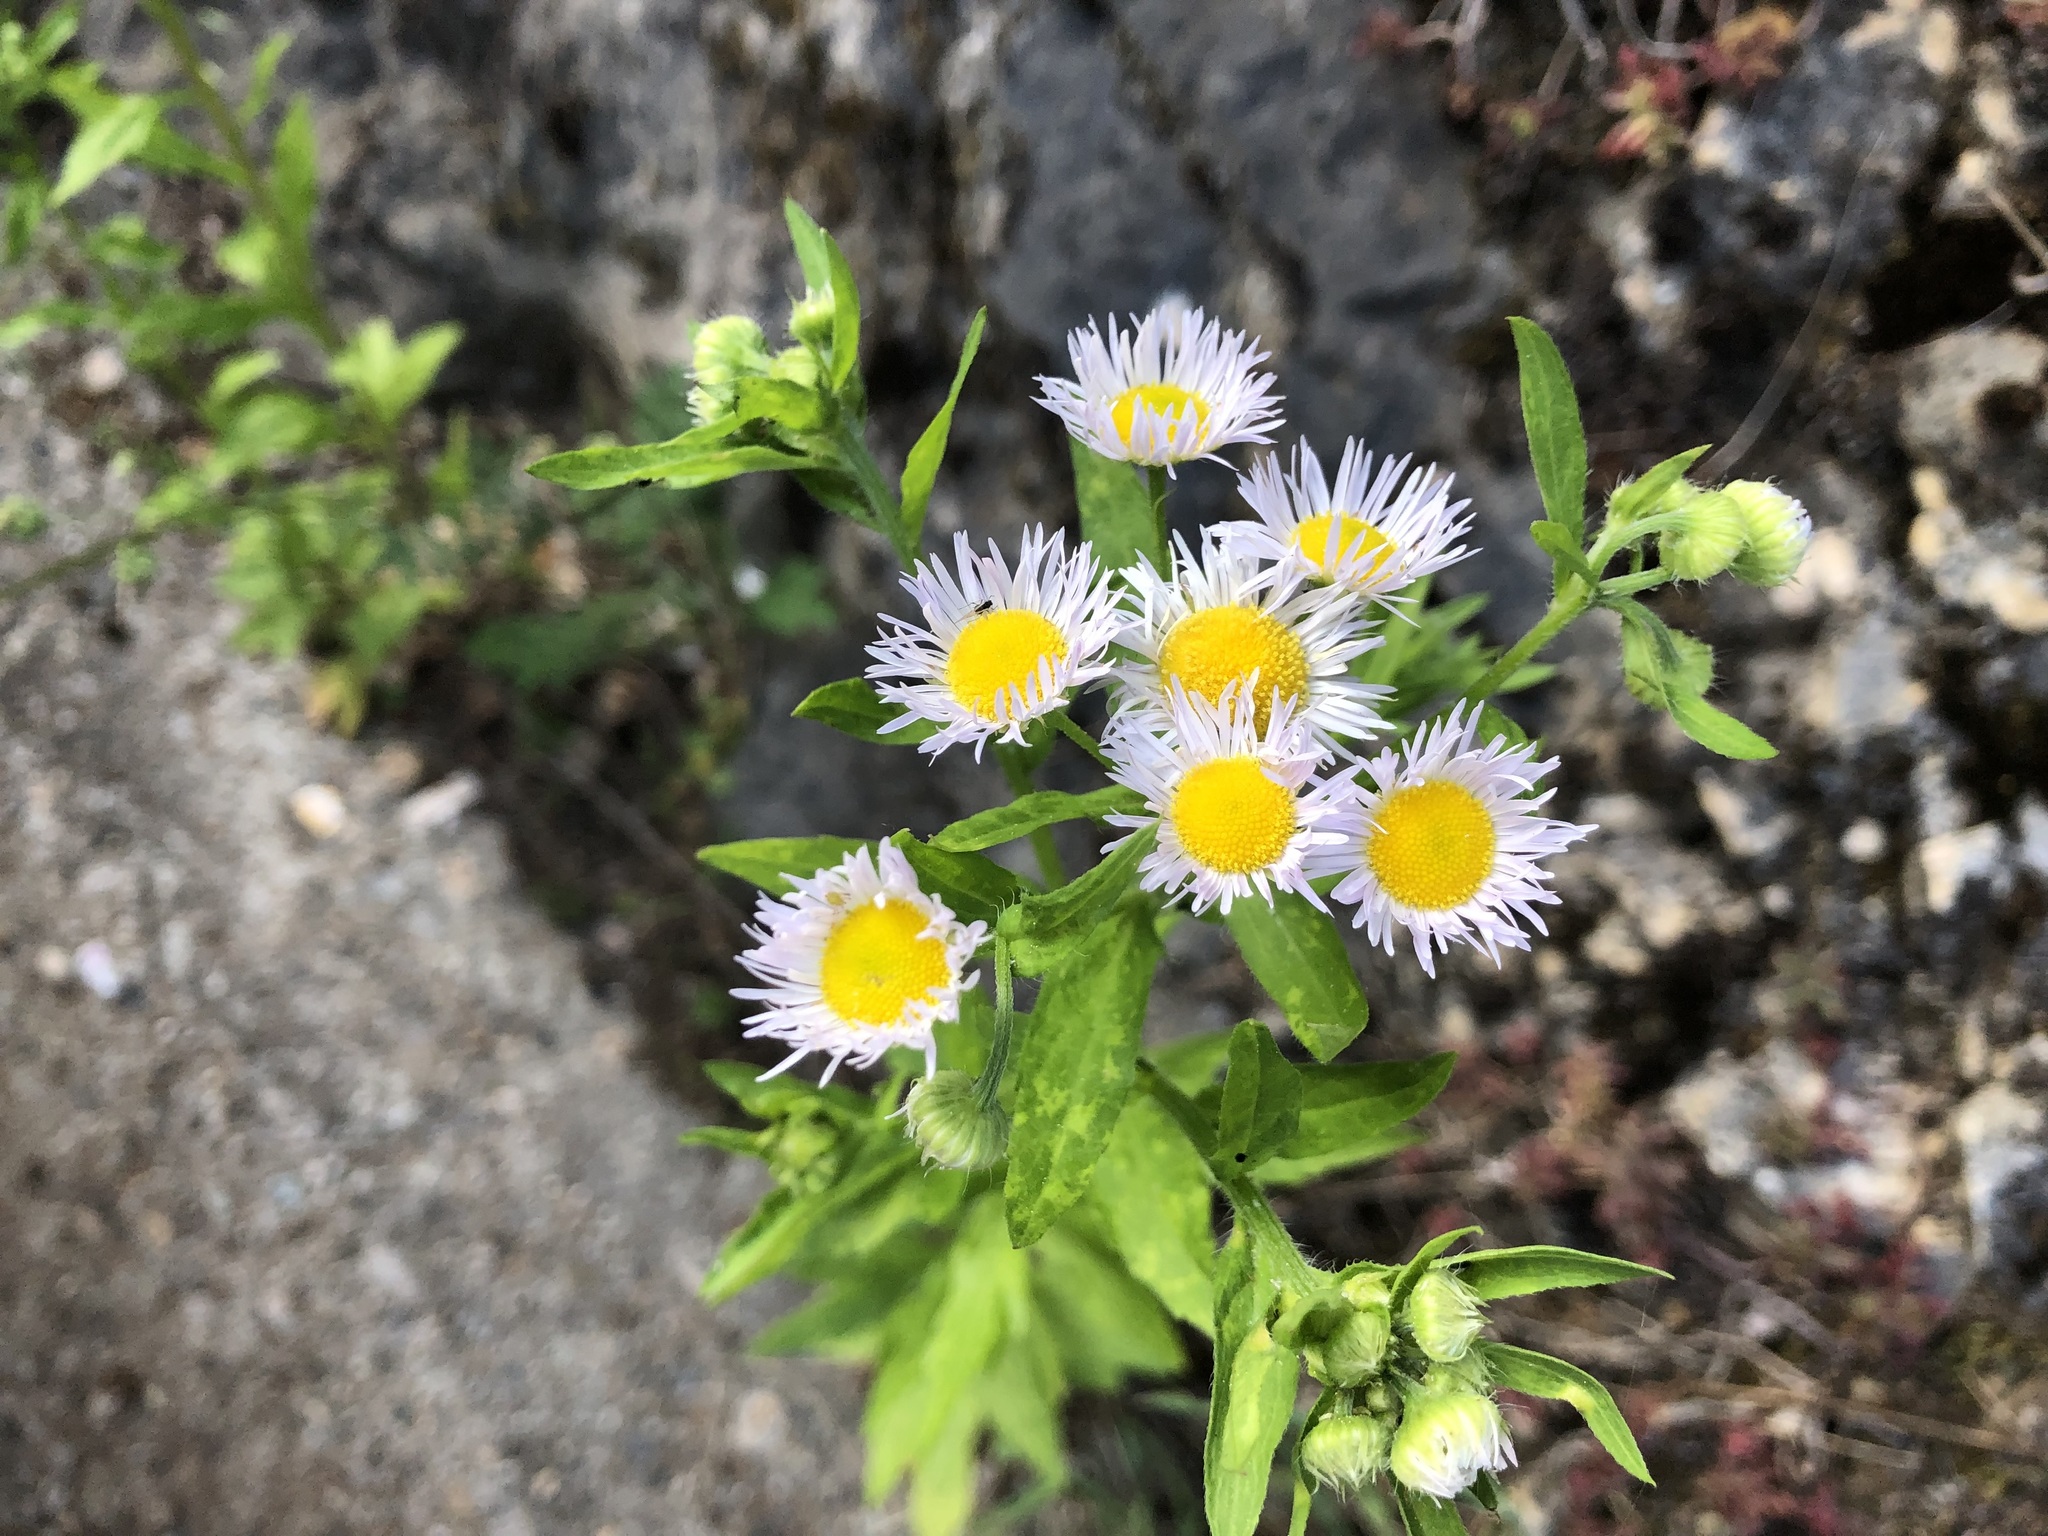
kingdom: Plantae
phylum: Tracheophyta
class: Magnoliopsida
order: Asterales
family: Asteraceae
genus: Erigeron
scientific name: Erigeron annuus
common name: Tall fleabane
